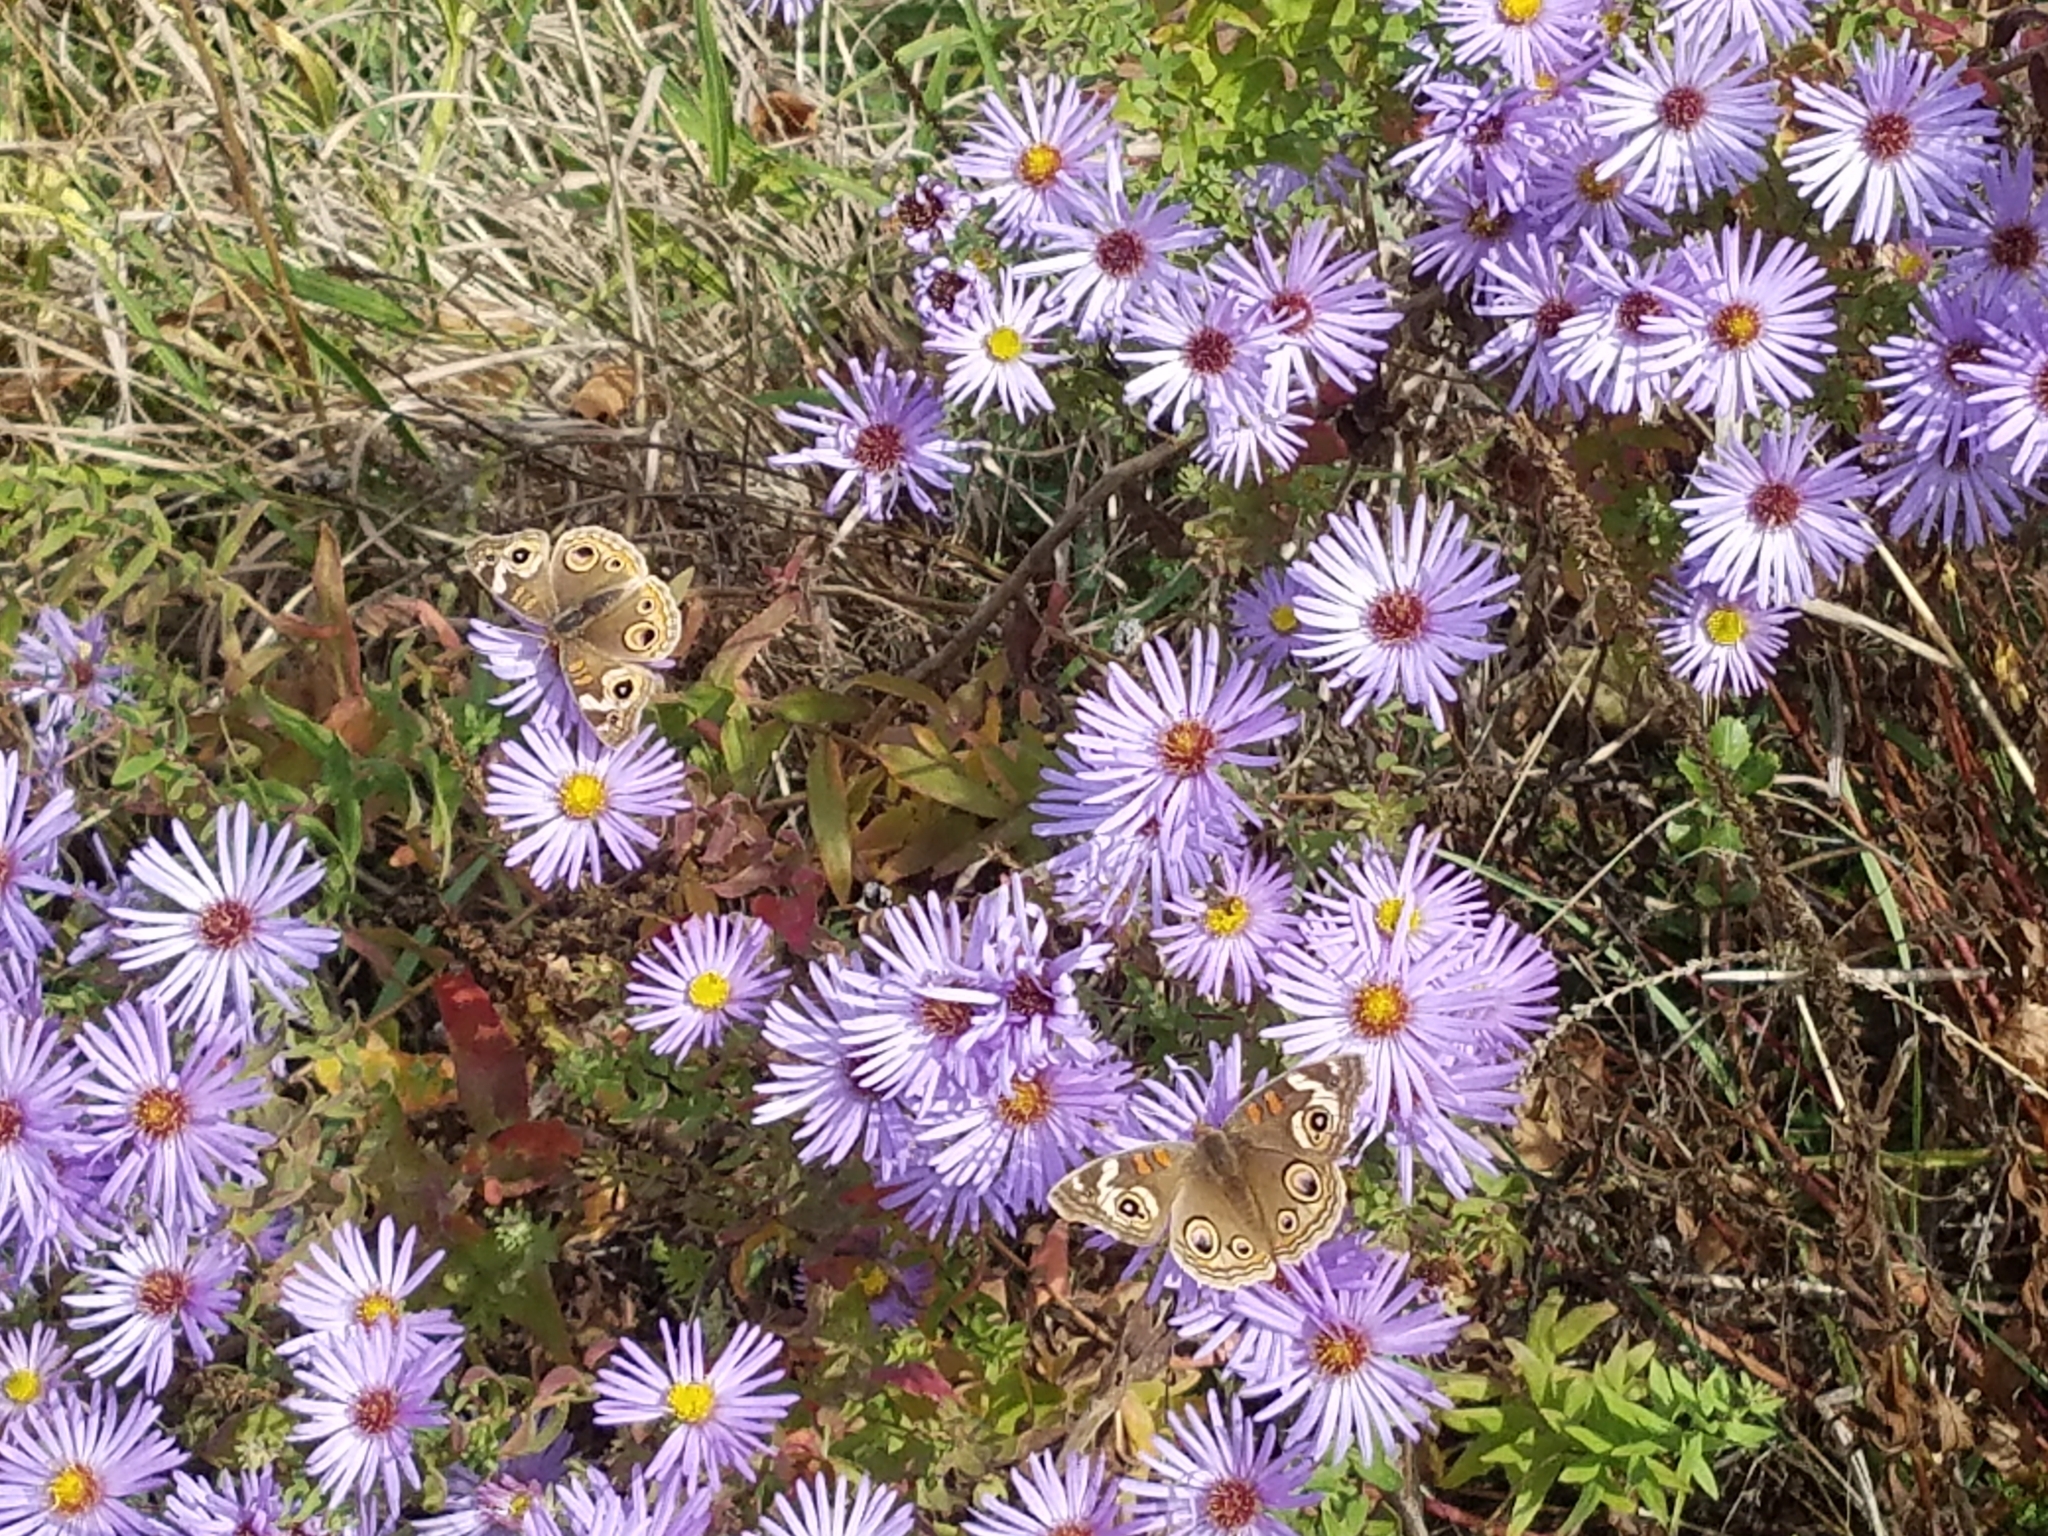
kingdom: Animalia
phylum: Arthropoda
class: Insecta
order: Lepidoptera
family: Nymphalidae
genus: Junonia
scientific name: Junonia grisea
